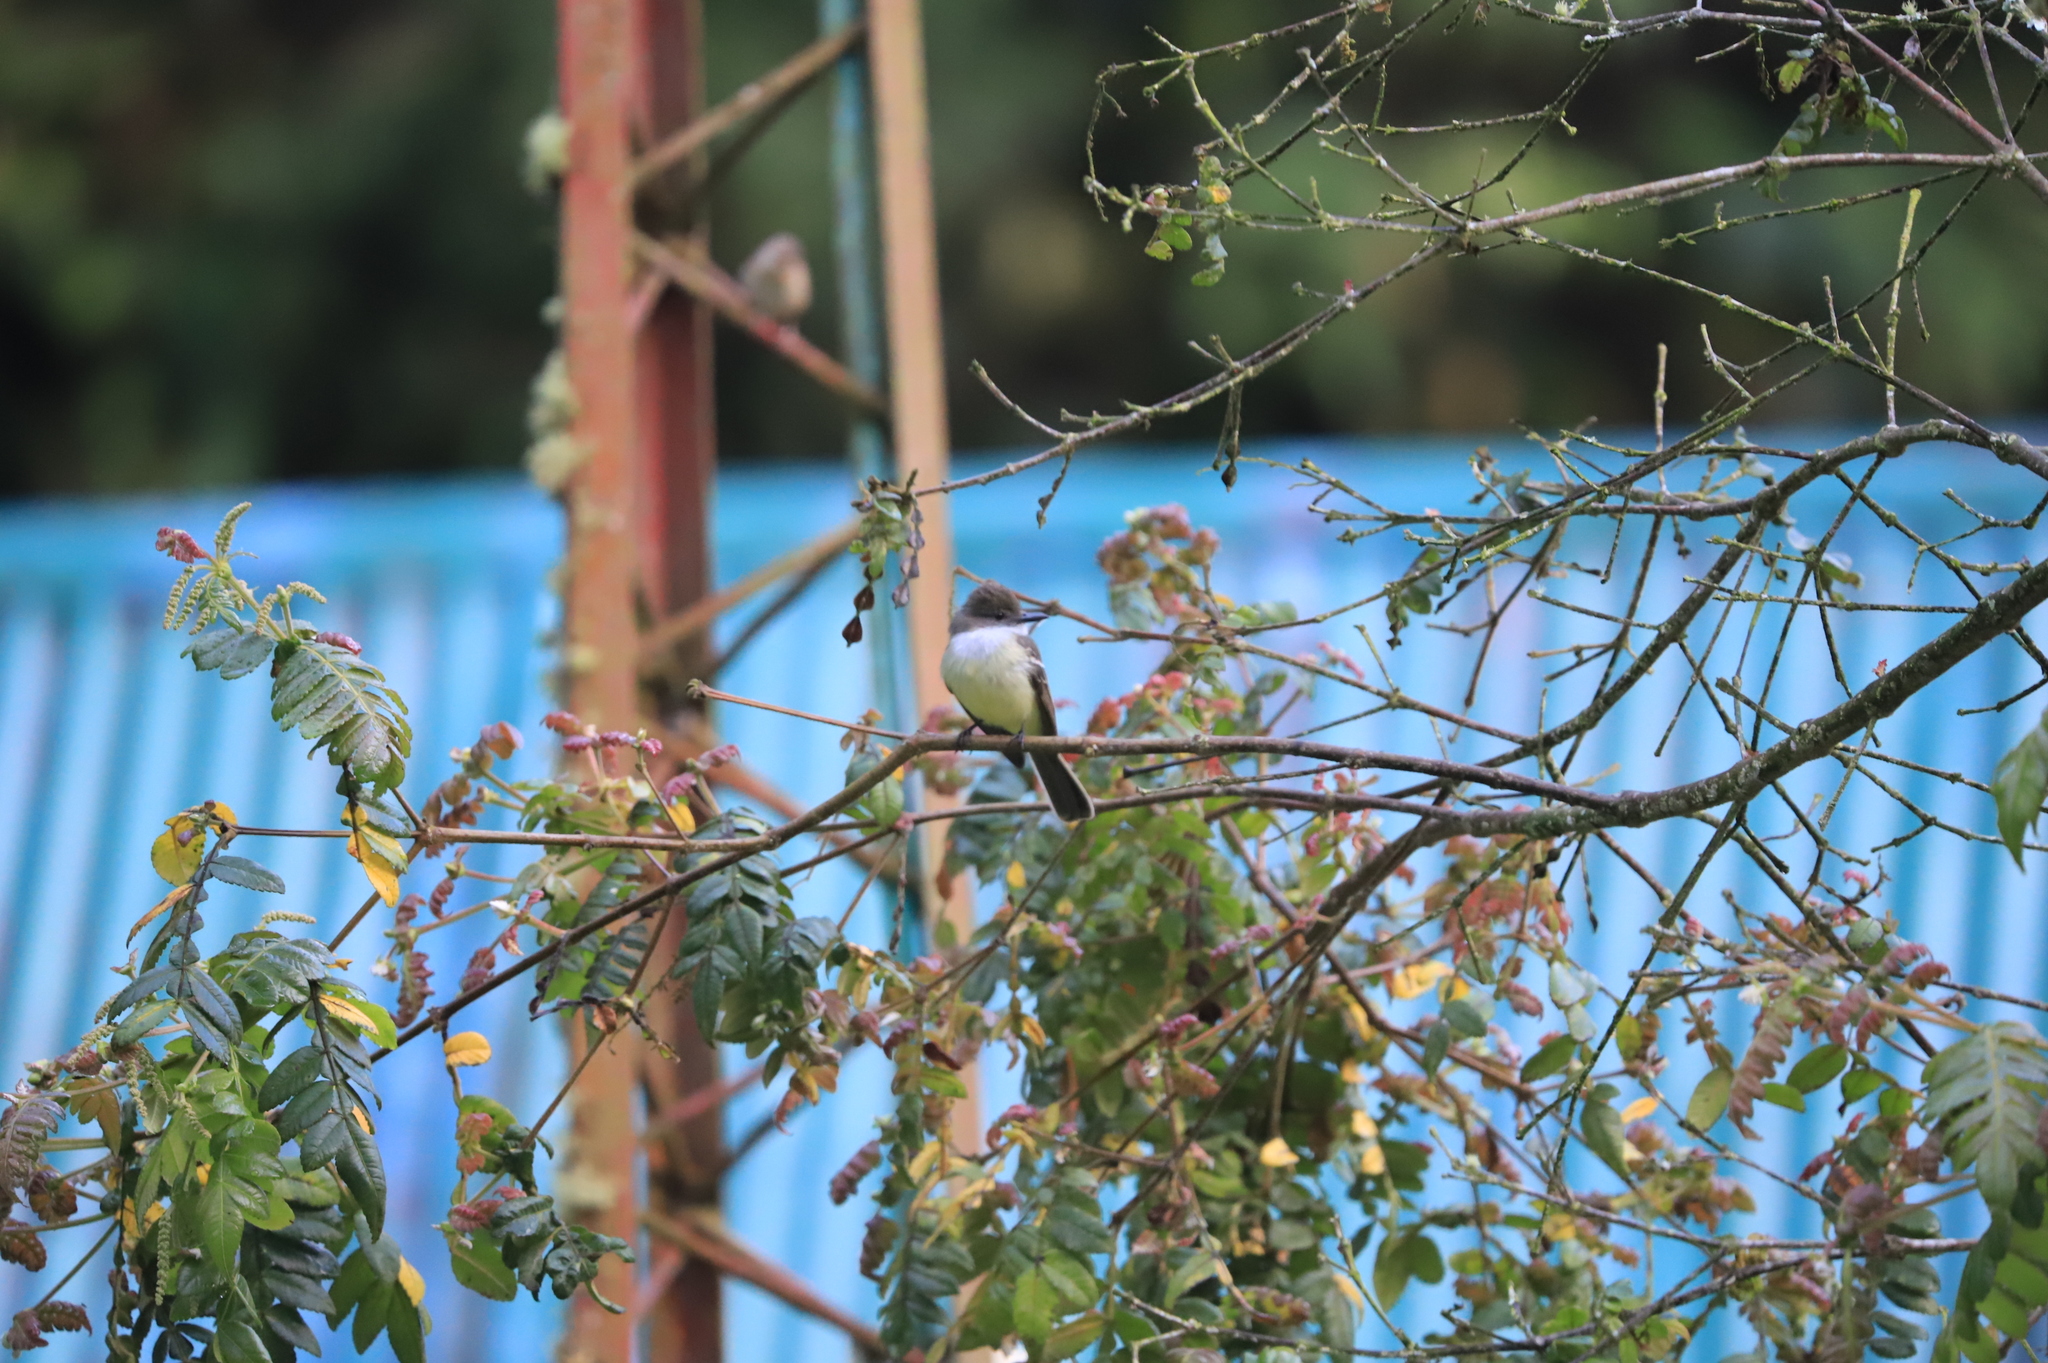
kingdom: Animalia
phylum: Chordata
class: Aves
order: Passeriformes
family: Tyrannidae
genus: Myiarchus
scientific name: Myiarchus cephalotes
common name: Pale-edged flycatcher
